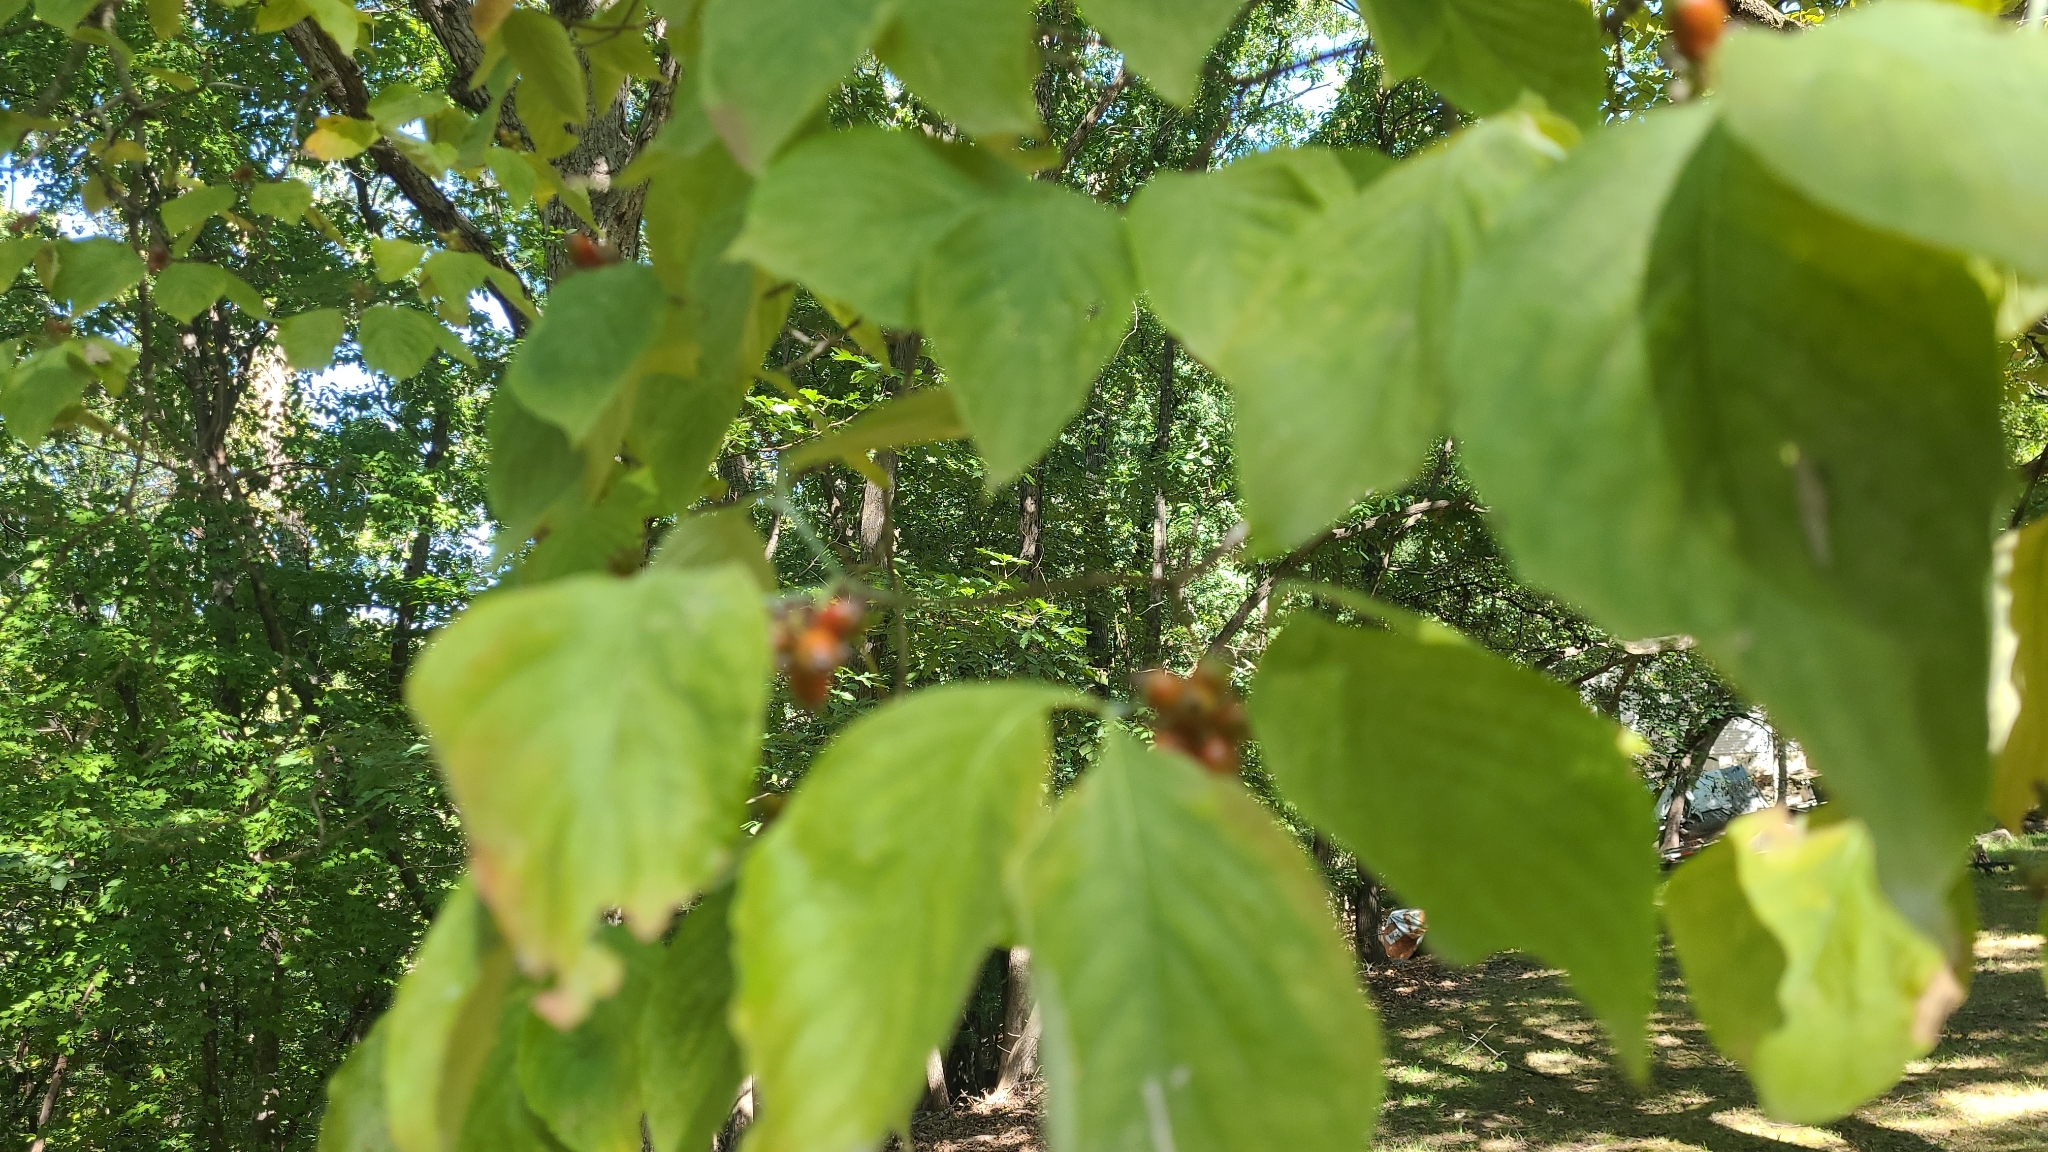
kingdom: Plantae
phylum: Tracheophyta
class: Magnoliopsida
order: Cornales
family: Cornaceae
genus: Cornus
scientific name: Cornus florida
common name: Flowering dogwood
